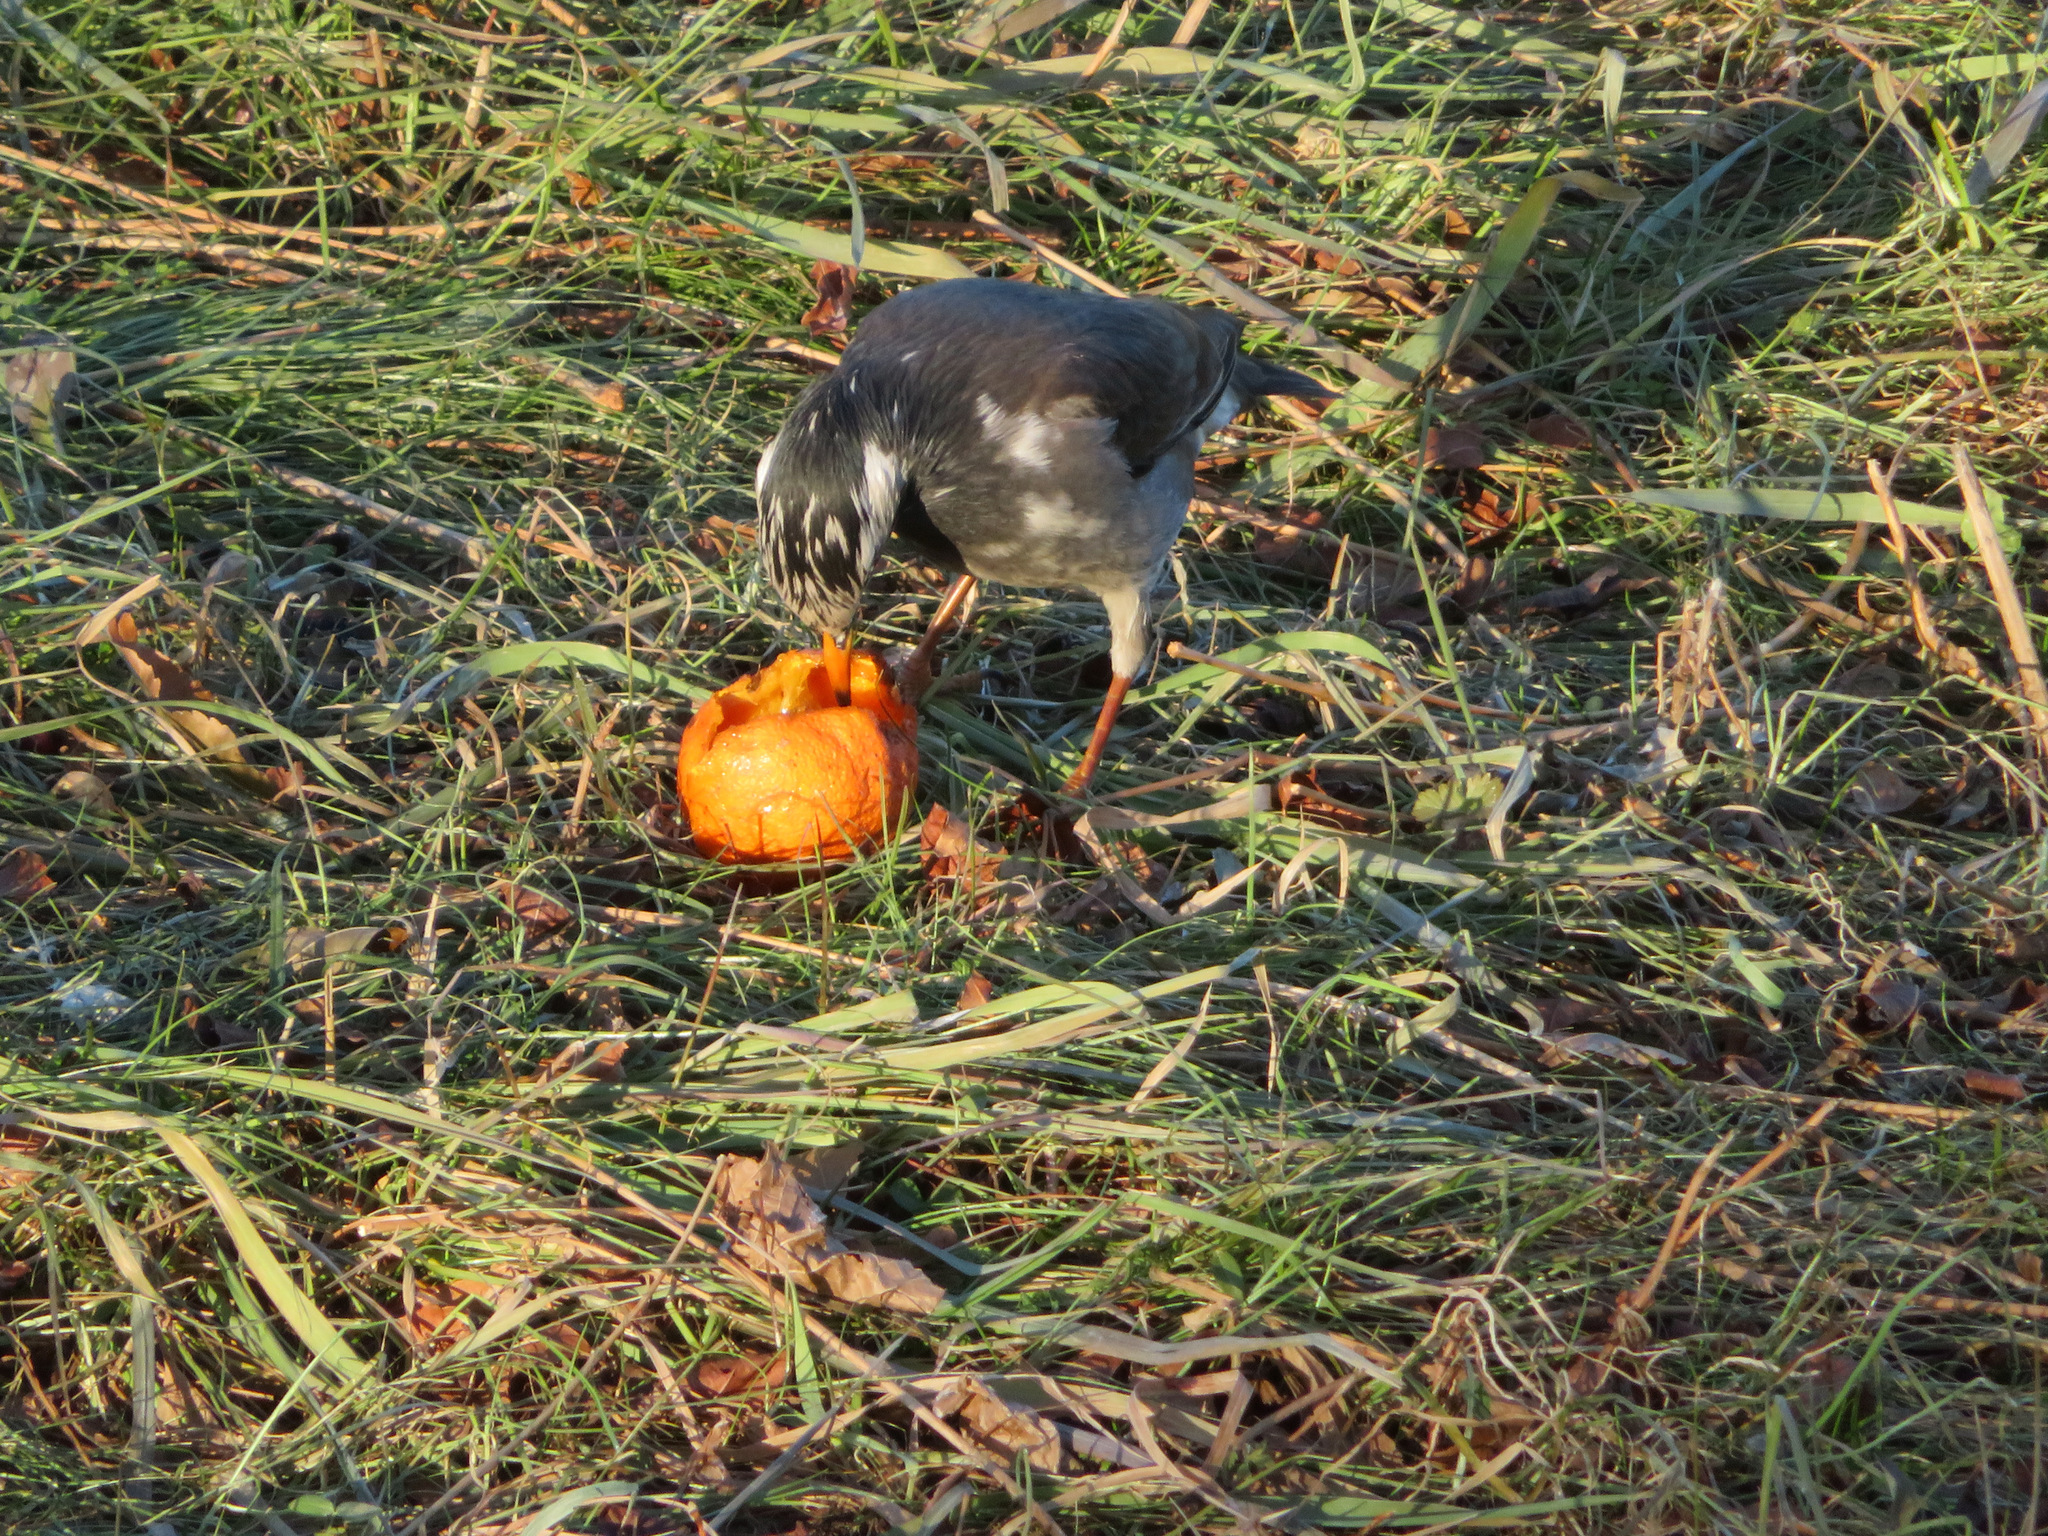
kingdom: Animalia
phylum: Chordata
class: Aves
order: Passeriformes
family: Sturnidae
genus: Spodiopsar
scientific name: Spodiopsar cineraceus
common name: White-cheeked starling
